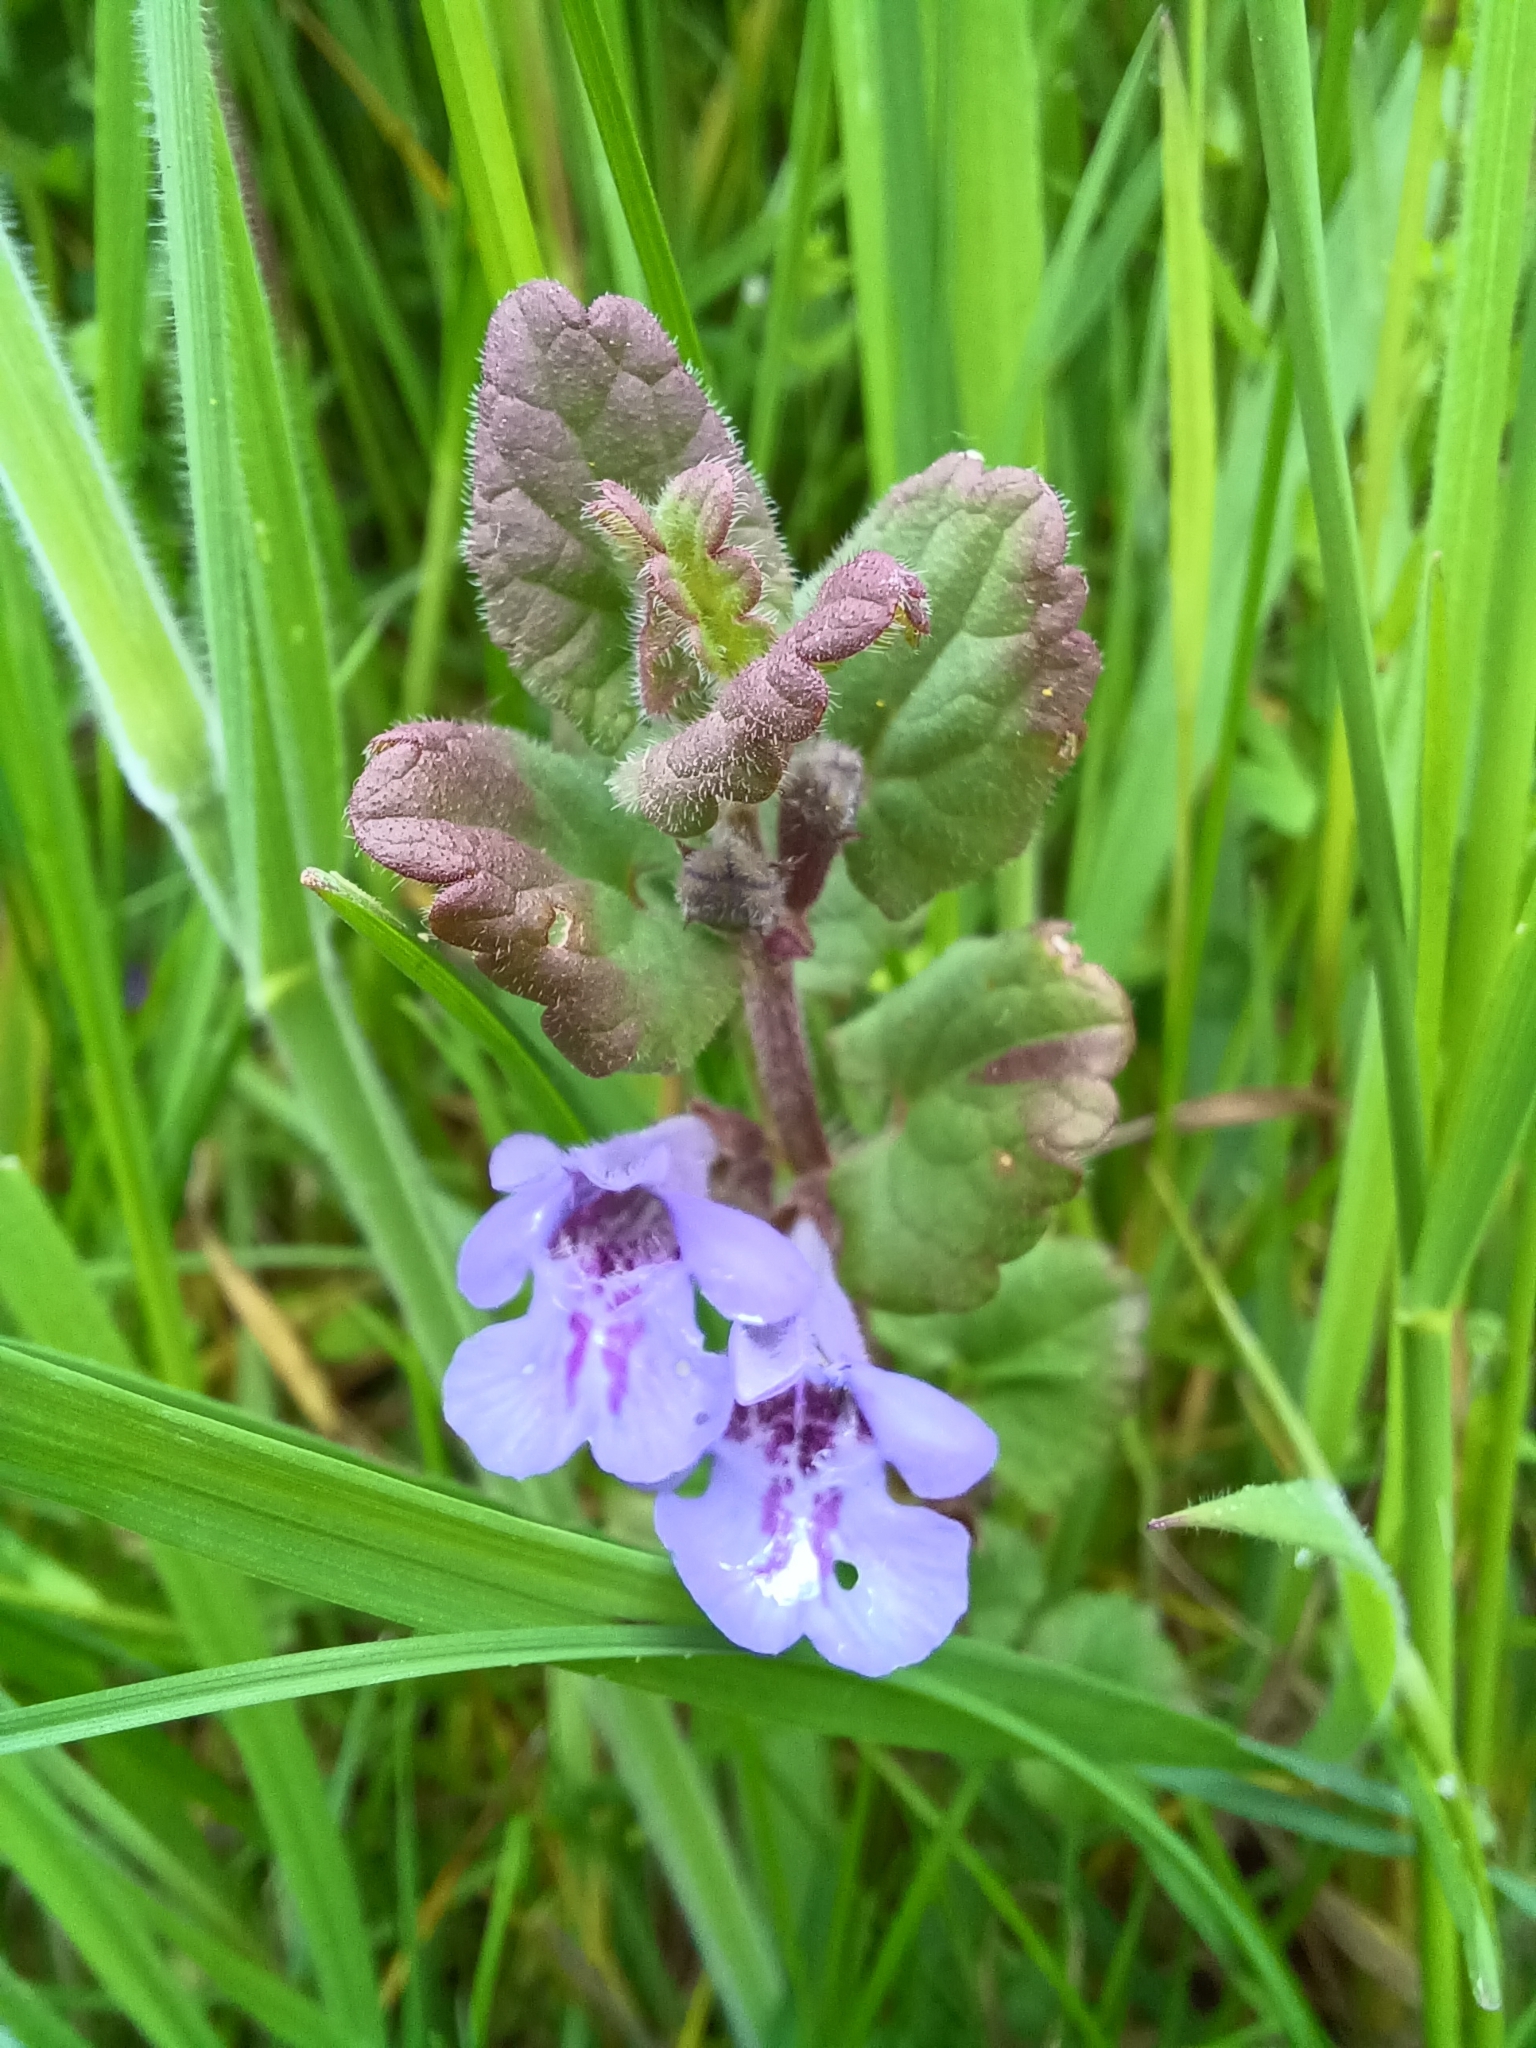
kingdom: Plantae
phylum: Tracheophyta
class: Magnoliopsida
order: Lamiales
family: Lamiaceae
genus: Glechoma
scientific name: Glechoma hederacea
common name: Ground ivy
